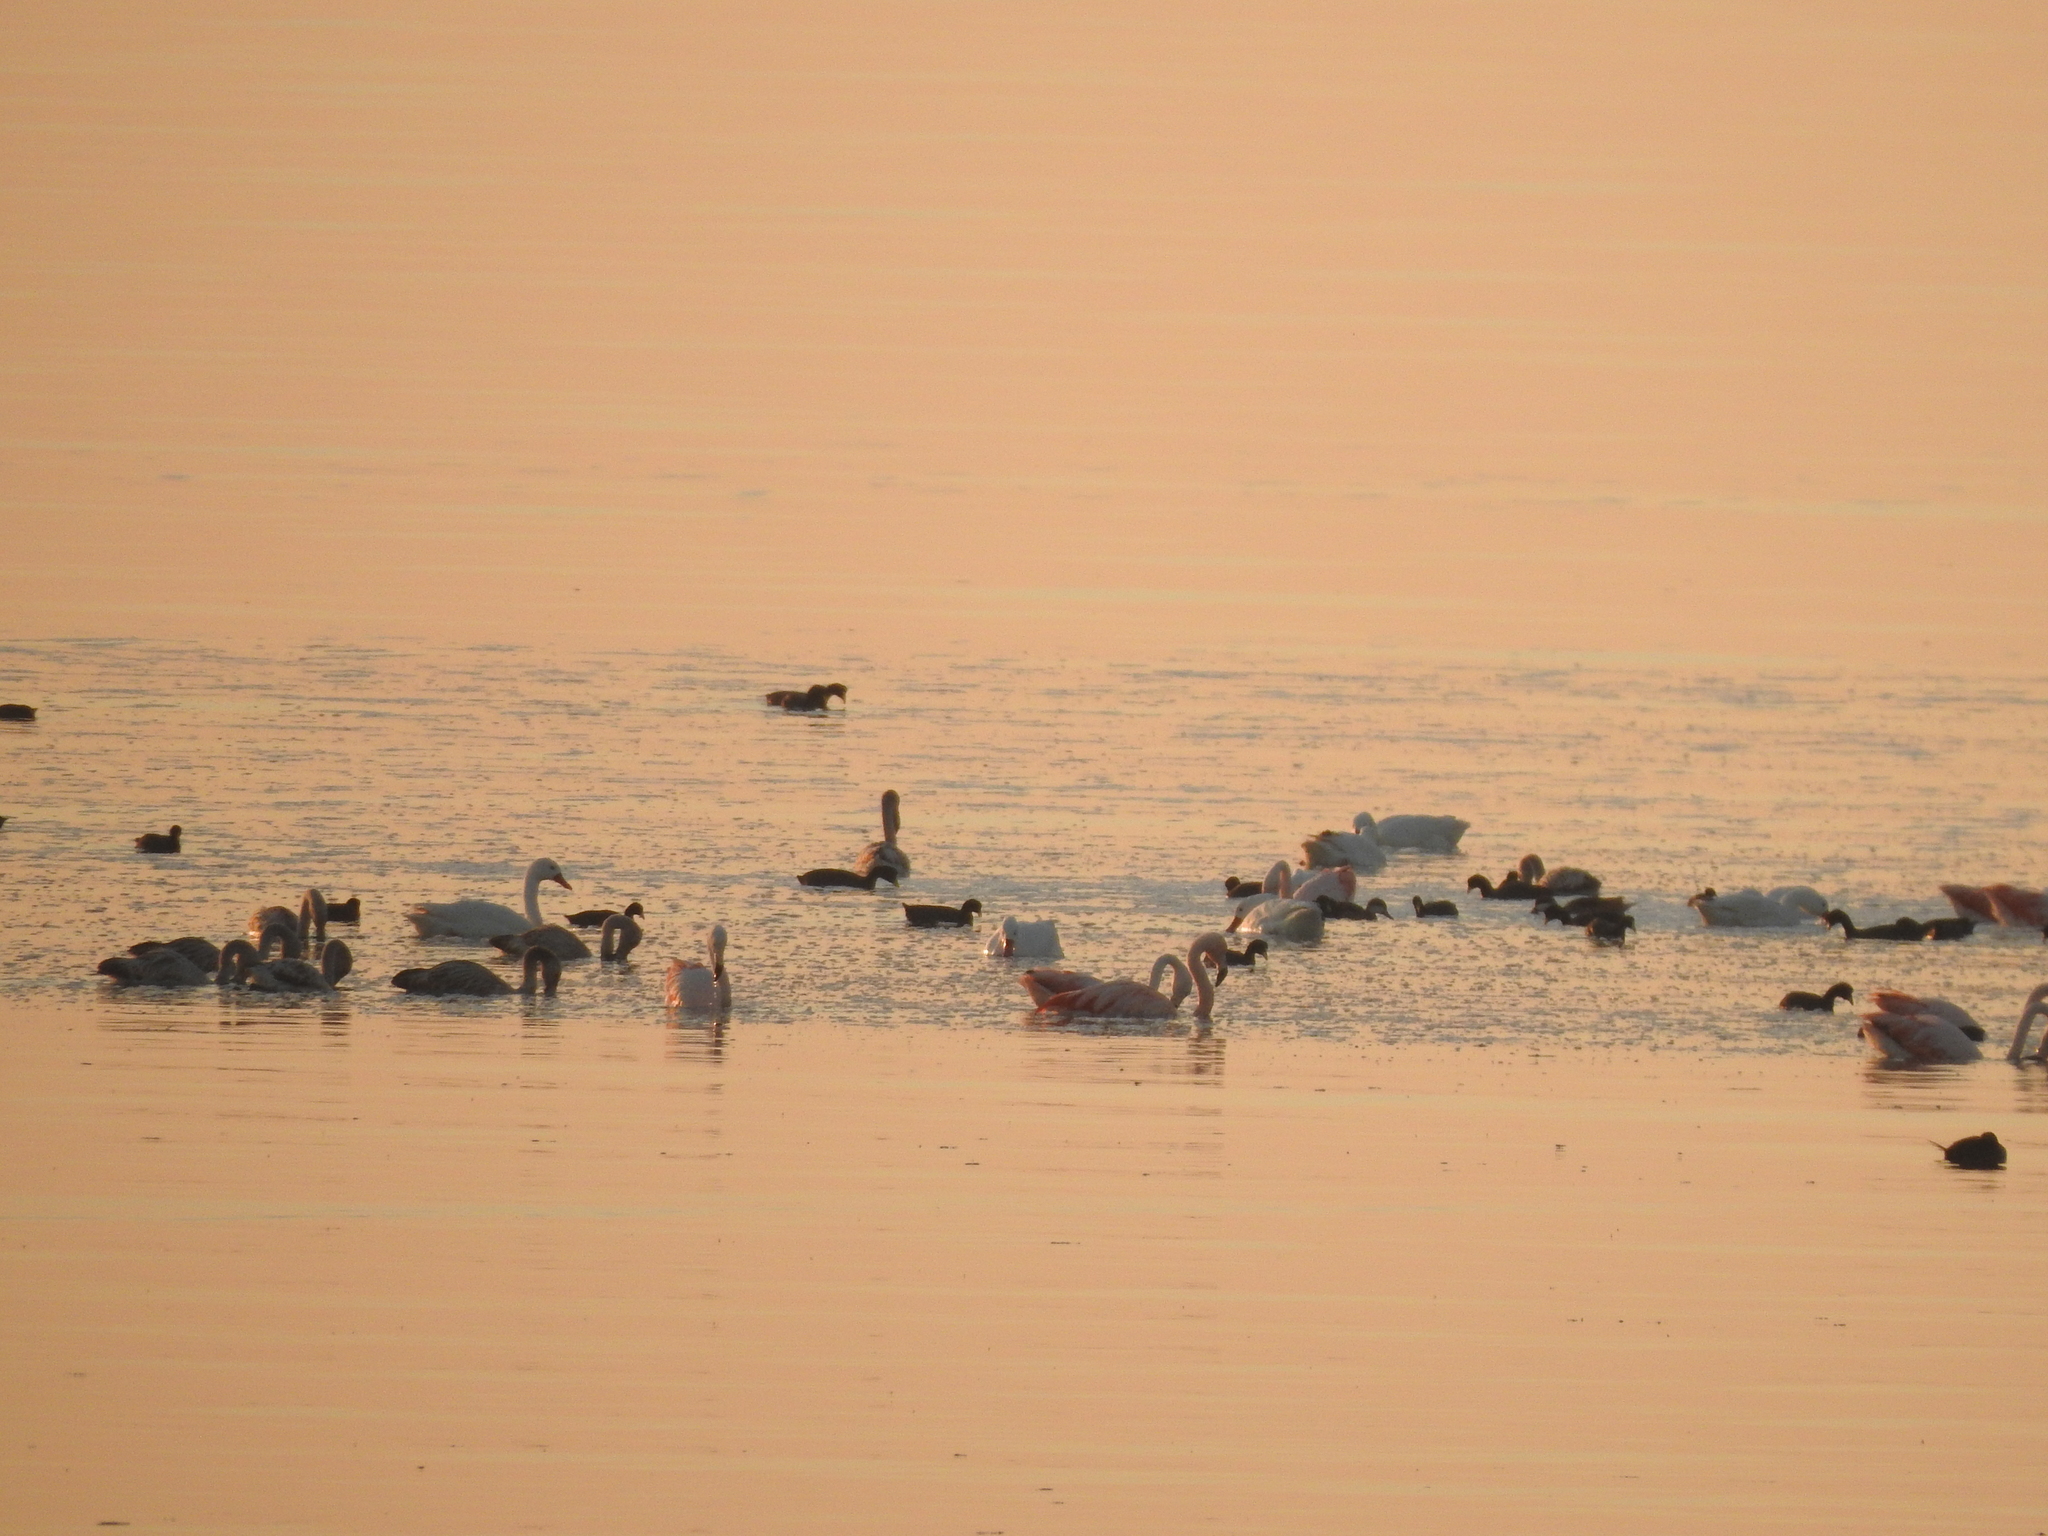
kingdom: Animalia
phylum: Chordata
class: Aves
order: Anseriformes
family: Anatidae
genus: Anas
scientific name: Anas bahamensis
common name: White-cheeked pintail
